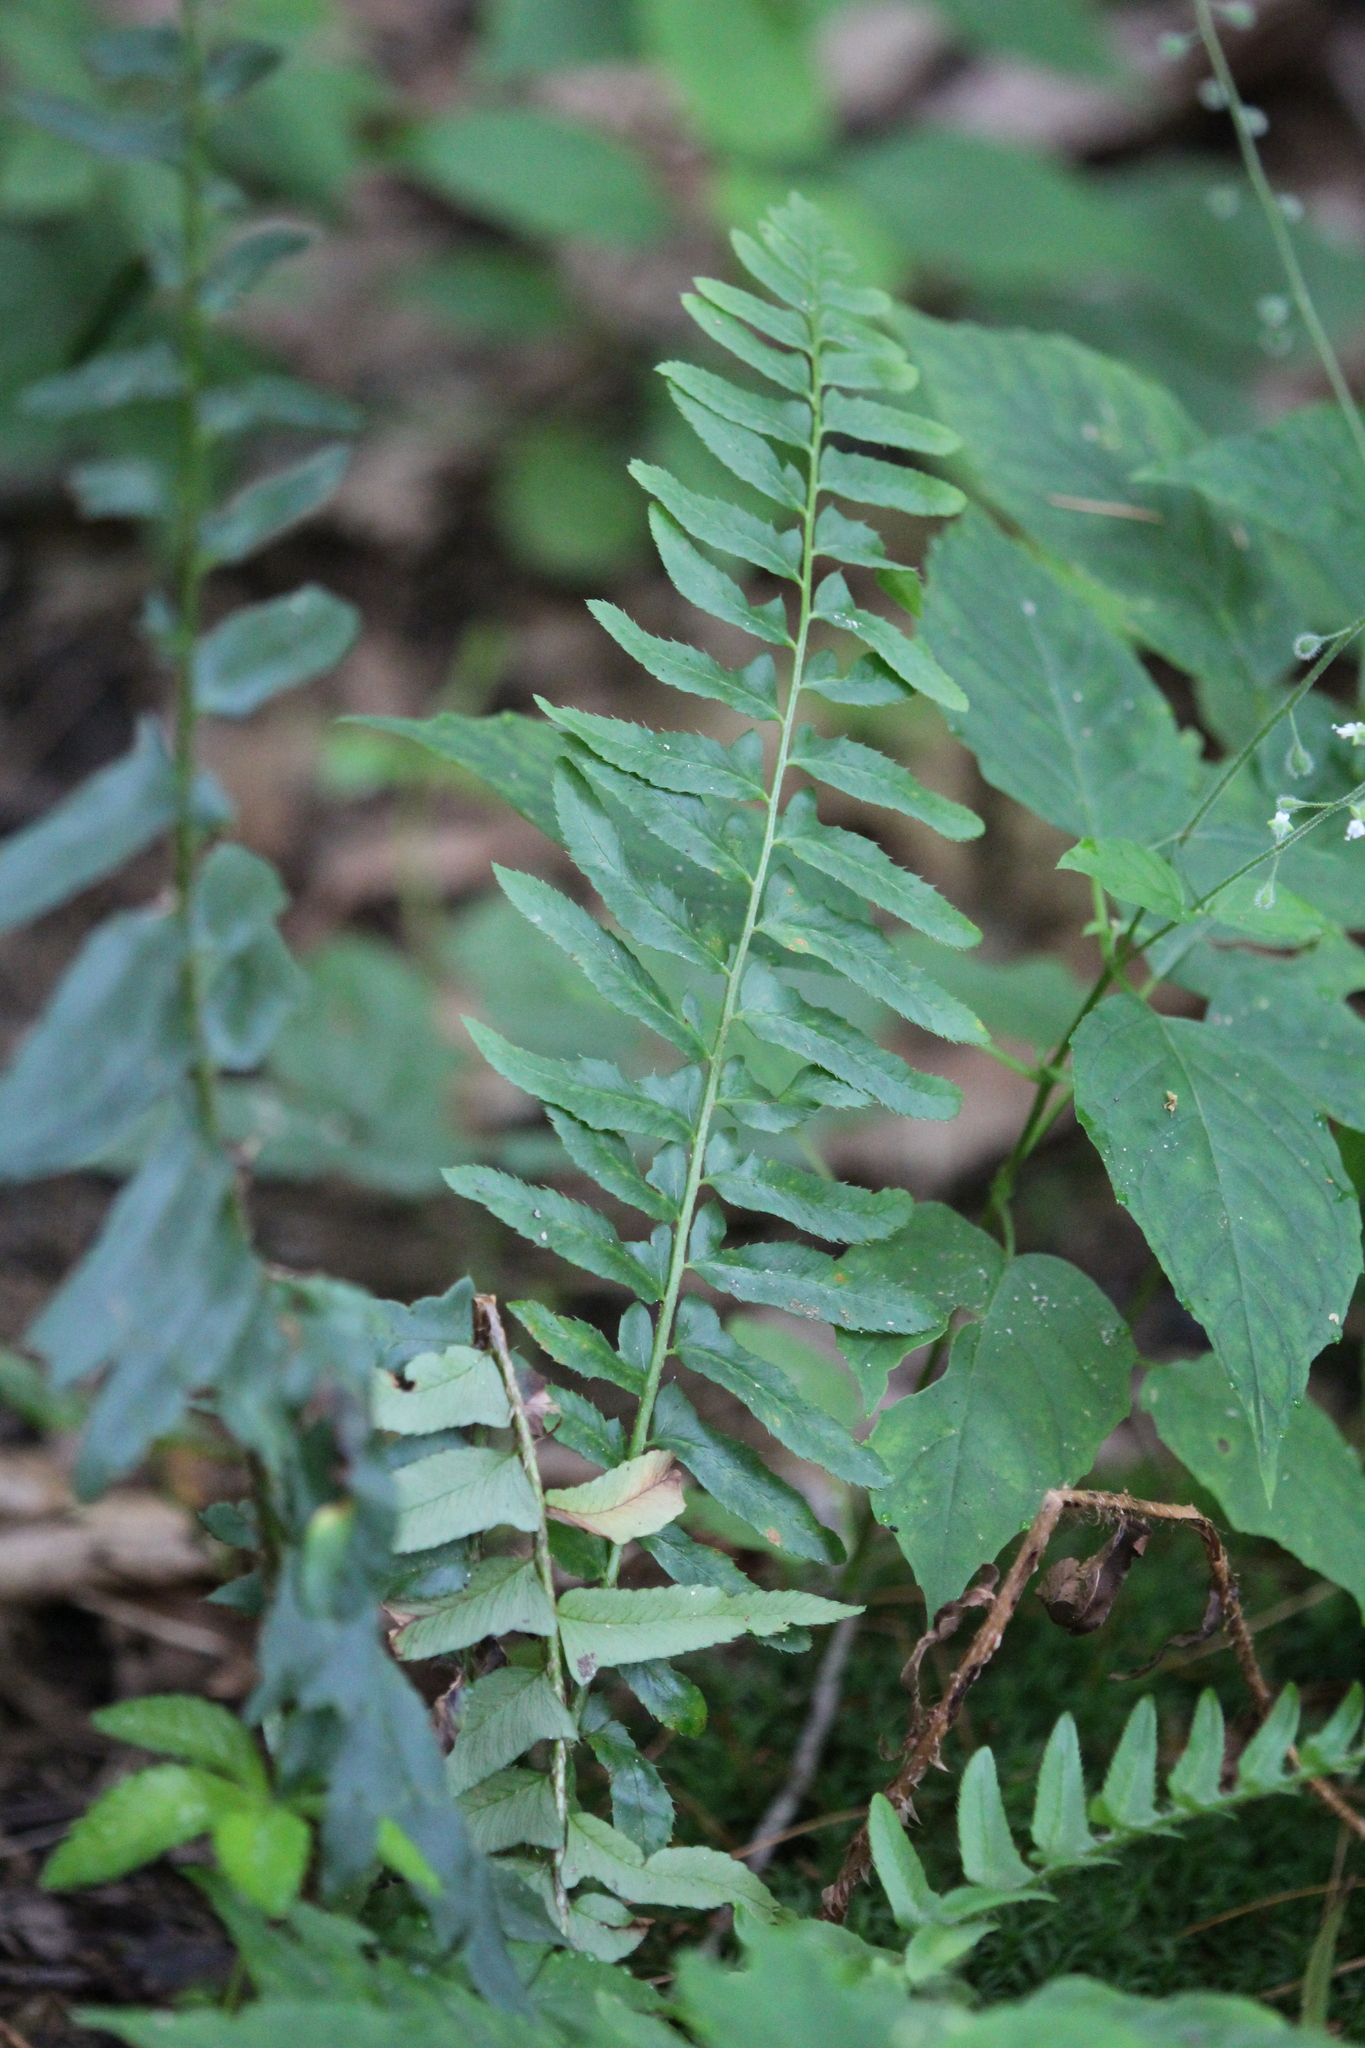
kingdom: Plantae
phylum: Tracheophyta
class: Polypodiopsida
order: Polypodiales
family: Dryopteridaceae
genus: Polystichum
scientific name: Polystichum acrostichoides
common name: Christmas fern
